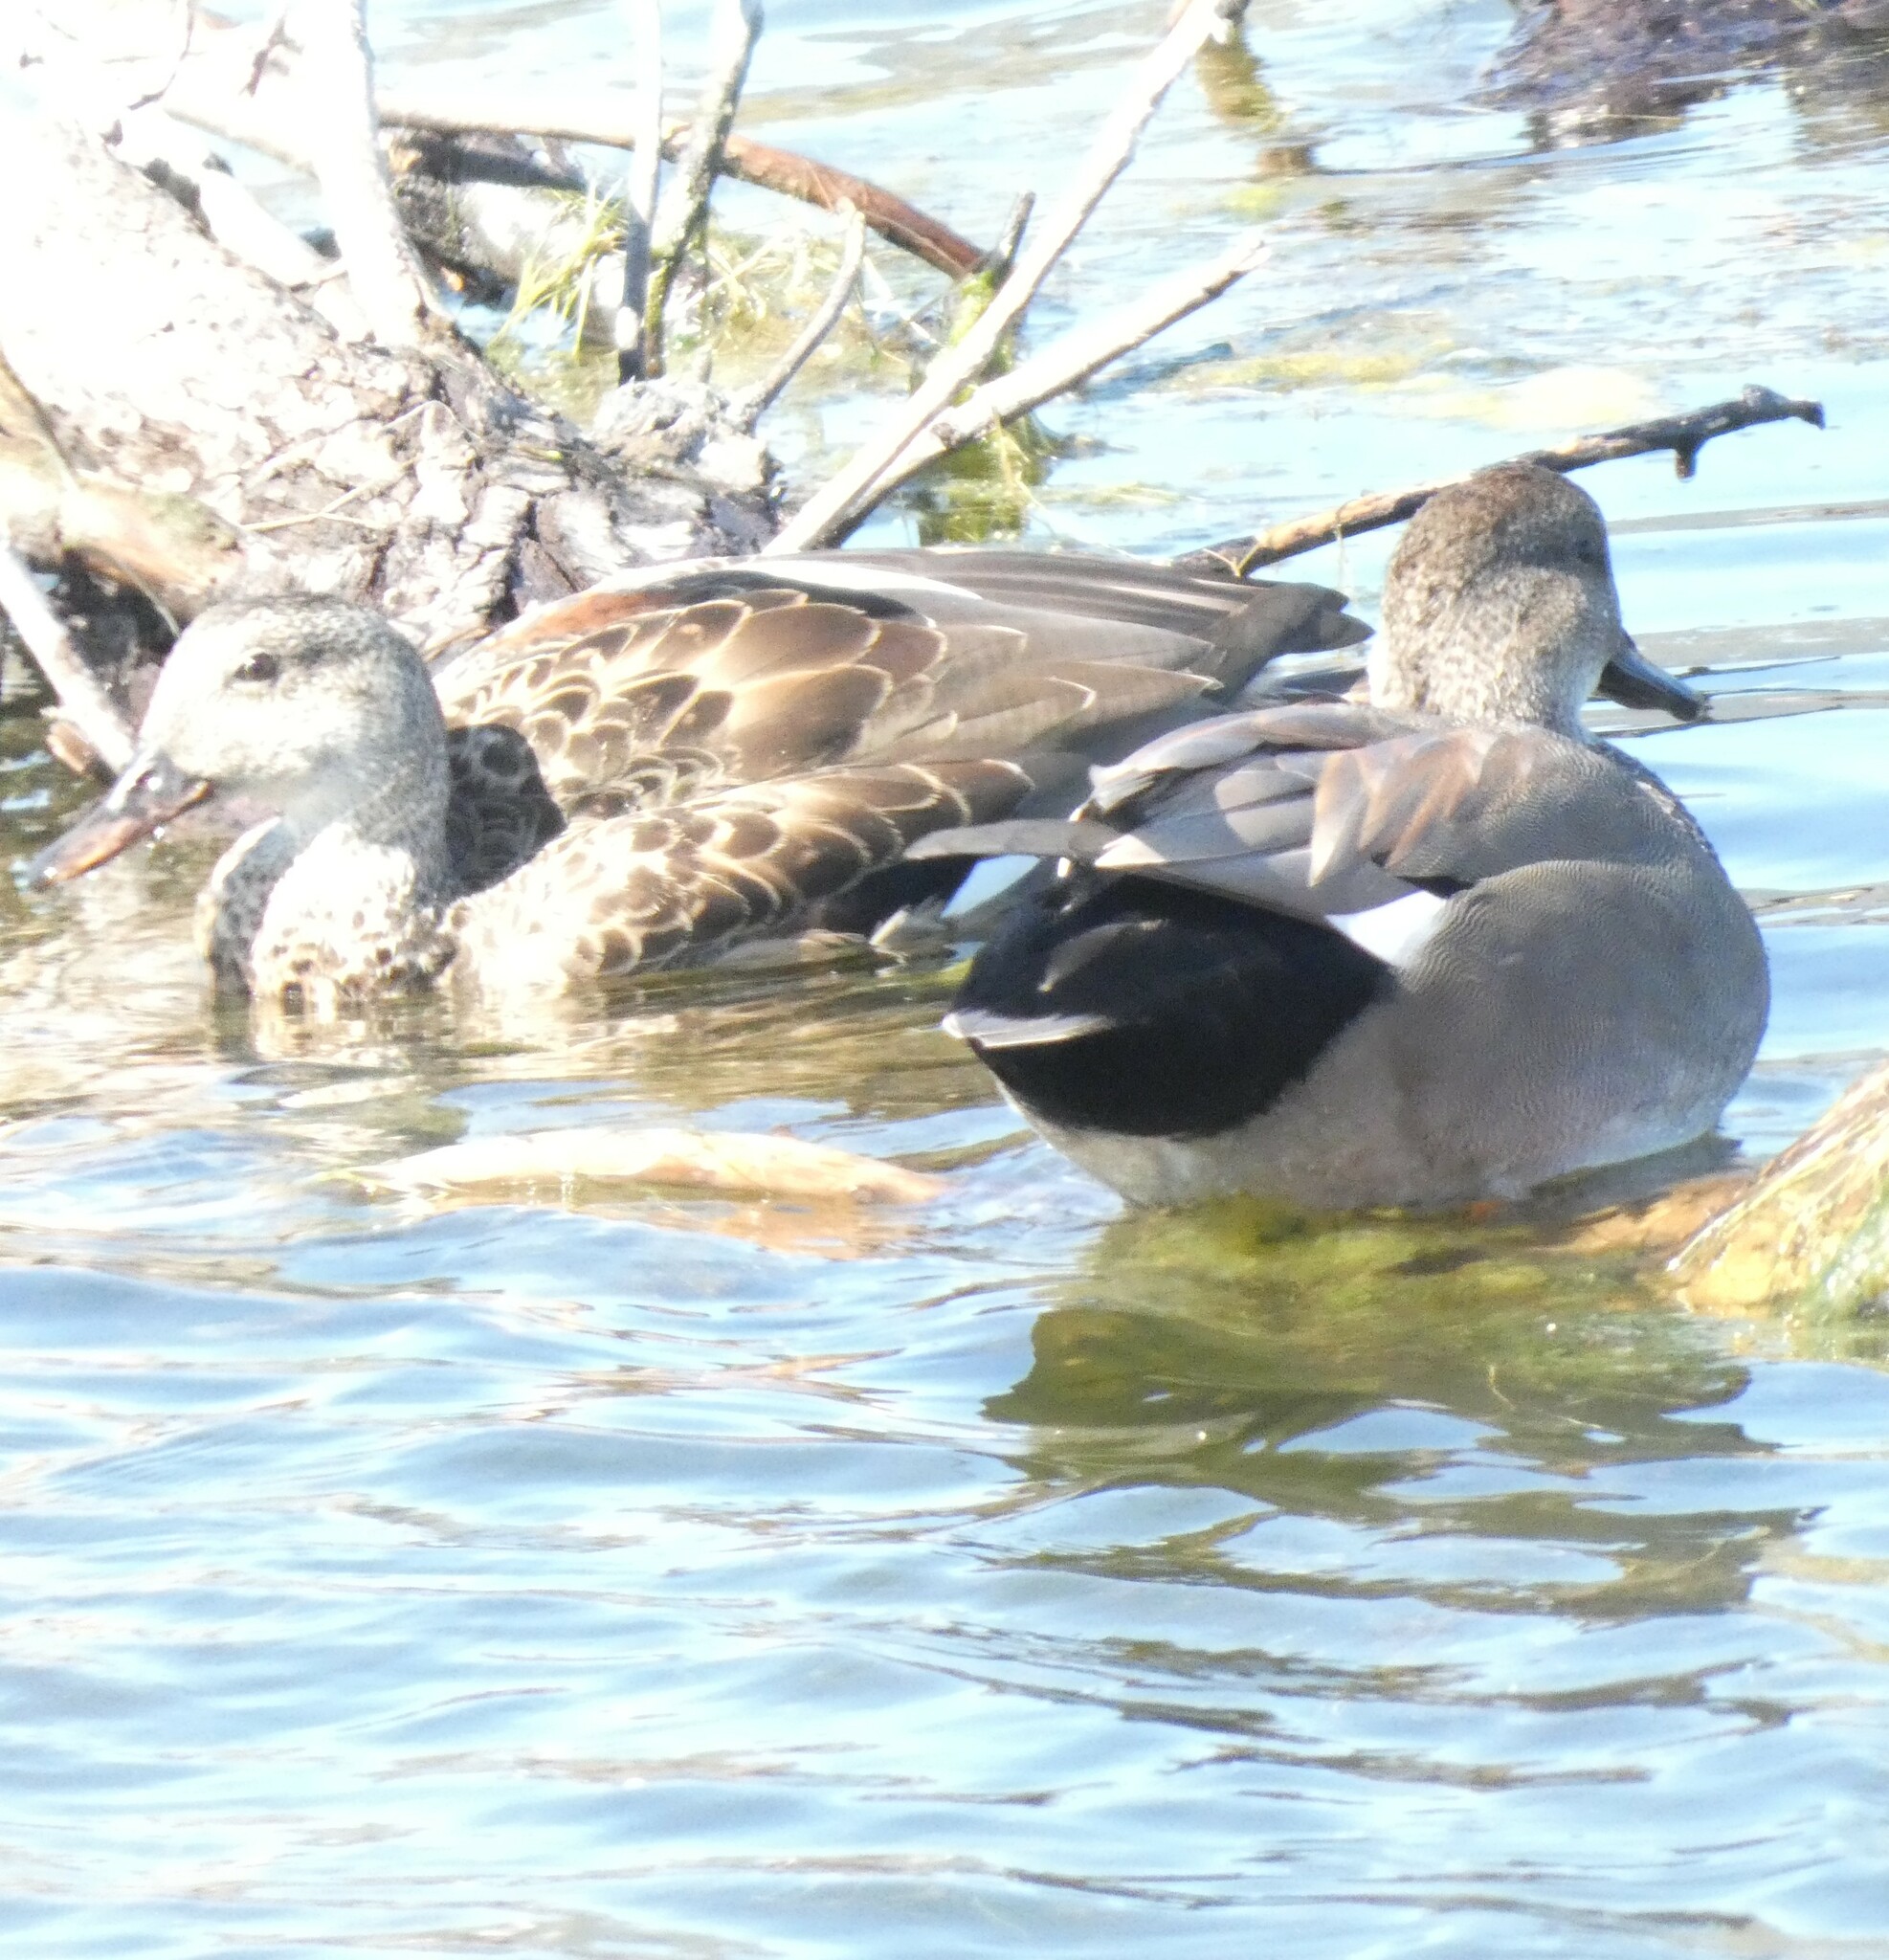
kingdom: Animalia
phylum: Chordata
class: Aves
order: Anseriformes
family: Anatidae
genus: Mareca
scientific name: Mareca strepera
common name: Gadwall
